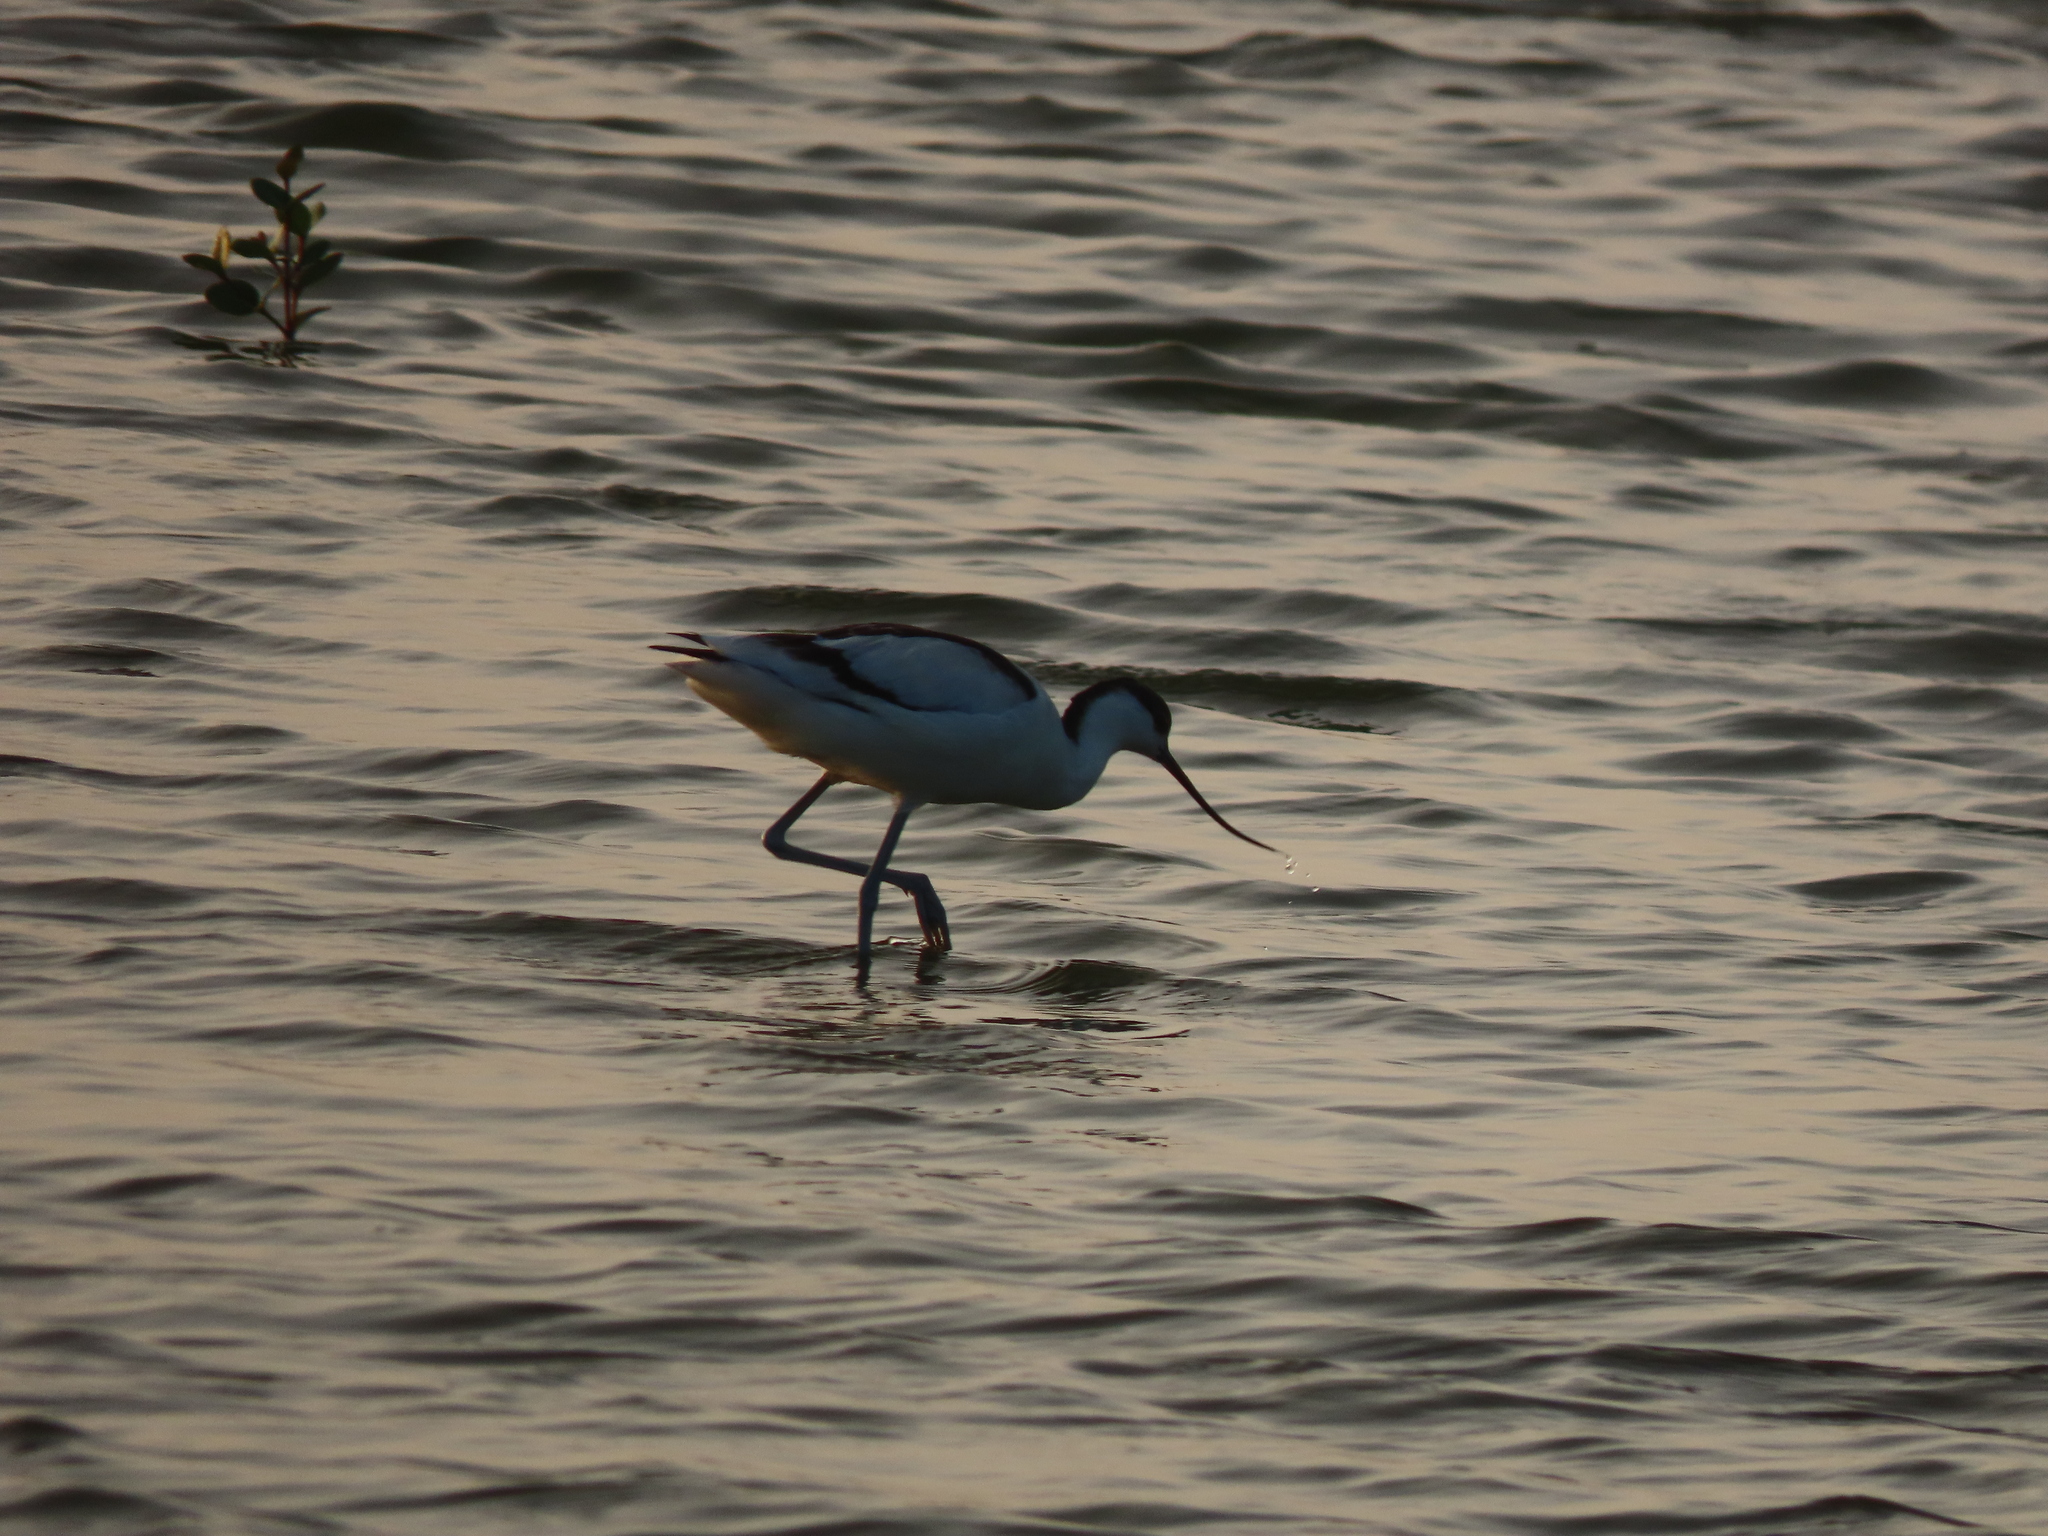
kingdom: Animalia
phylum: Chordata
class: Aves
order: Charadriiformes
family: Recurvirostridae
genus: Recurvirostra
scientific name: Recurvirostra avosetta
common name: Pied avocet
